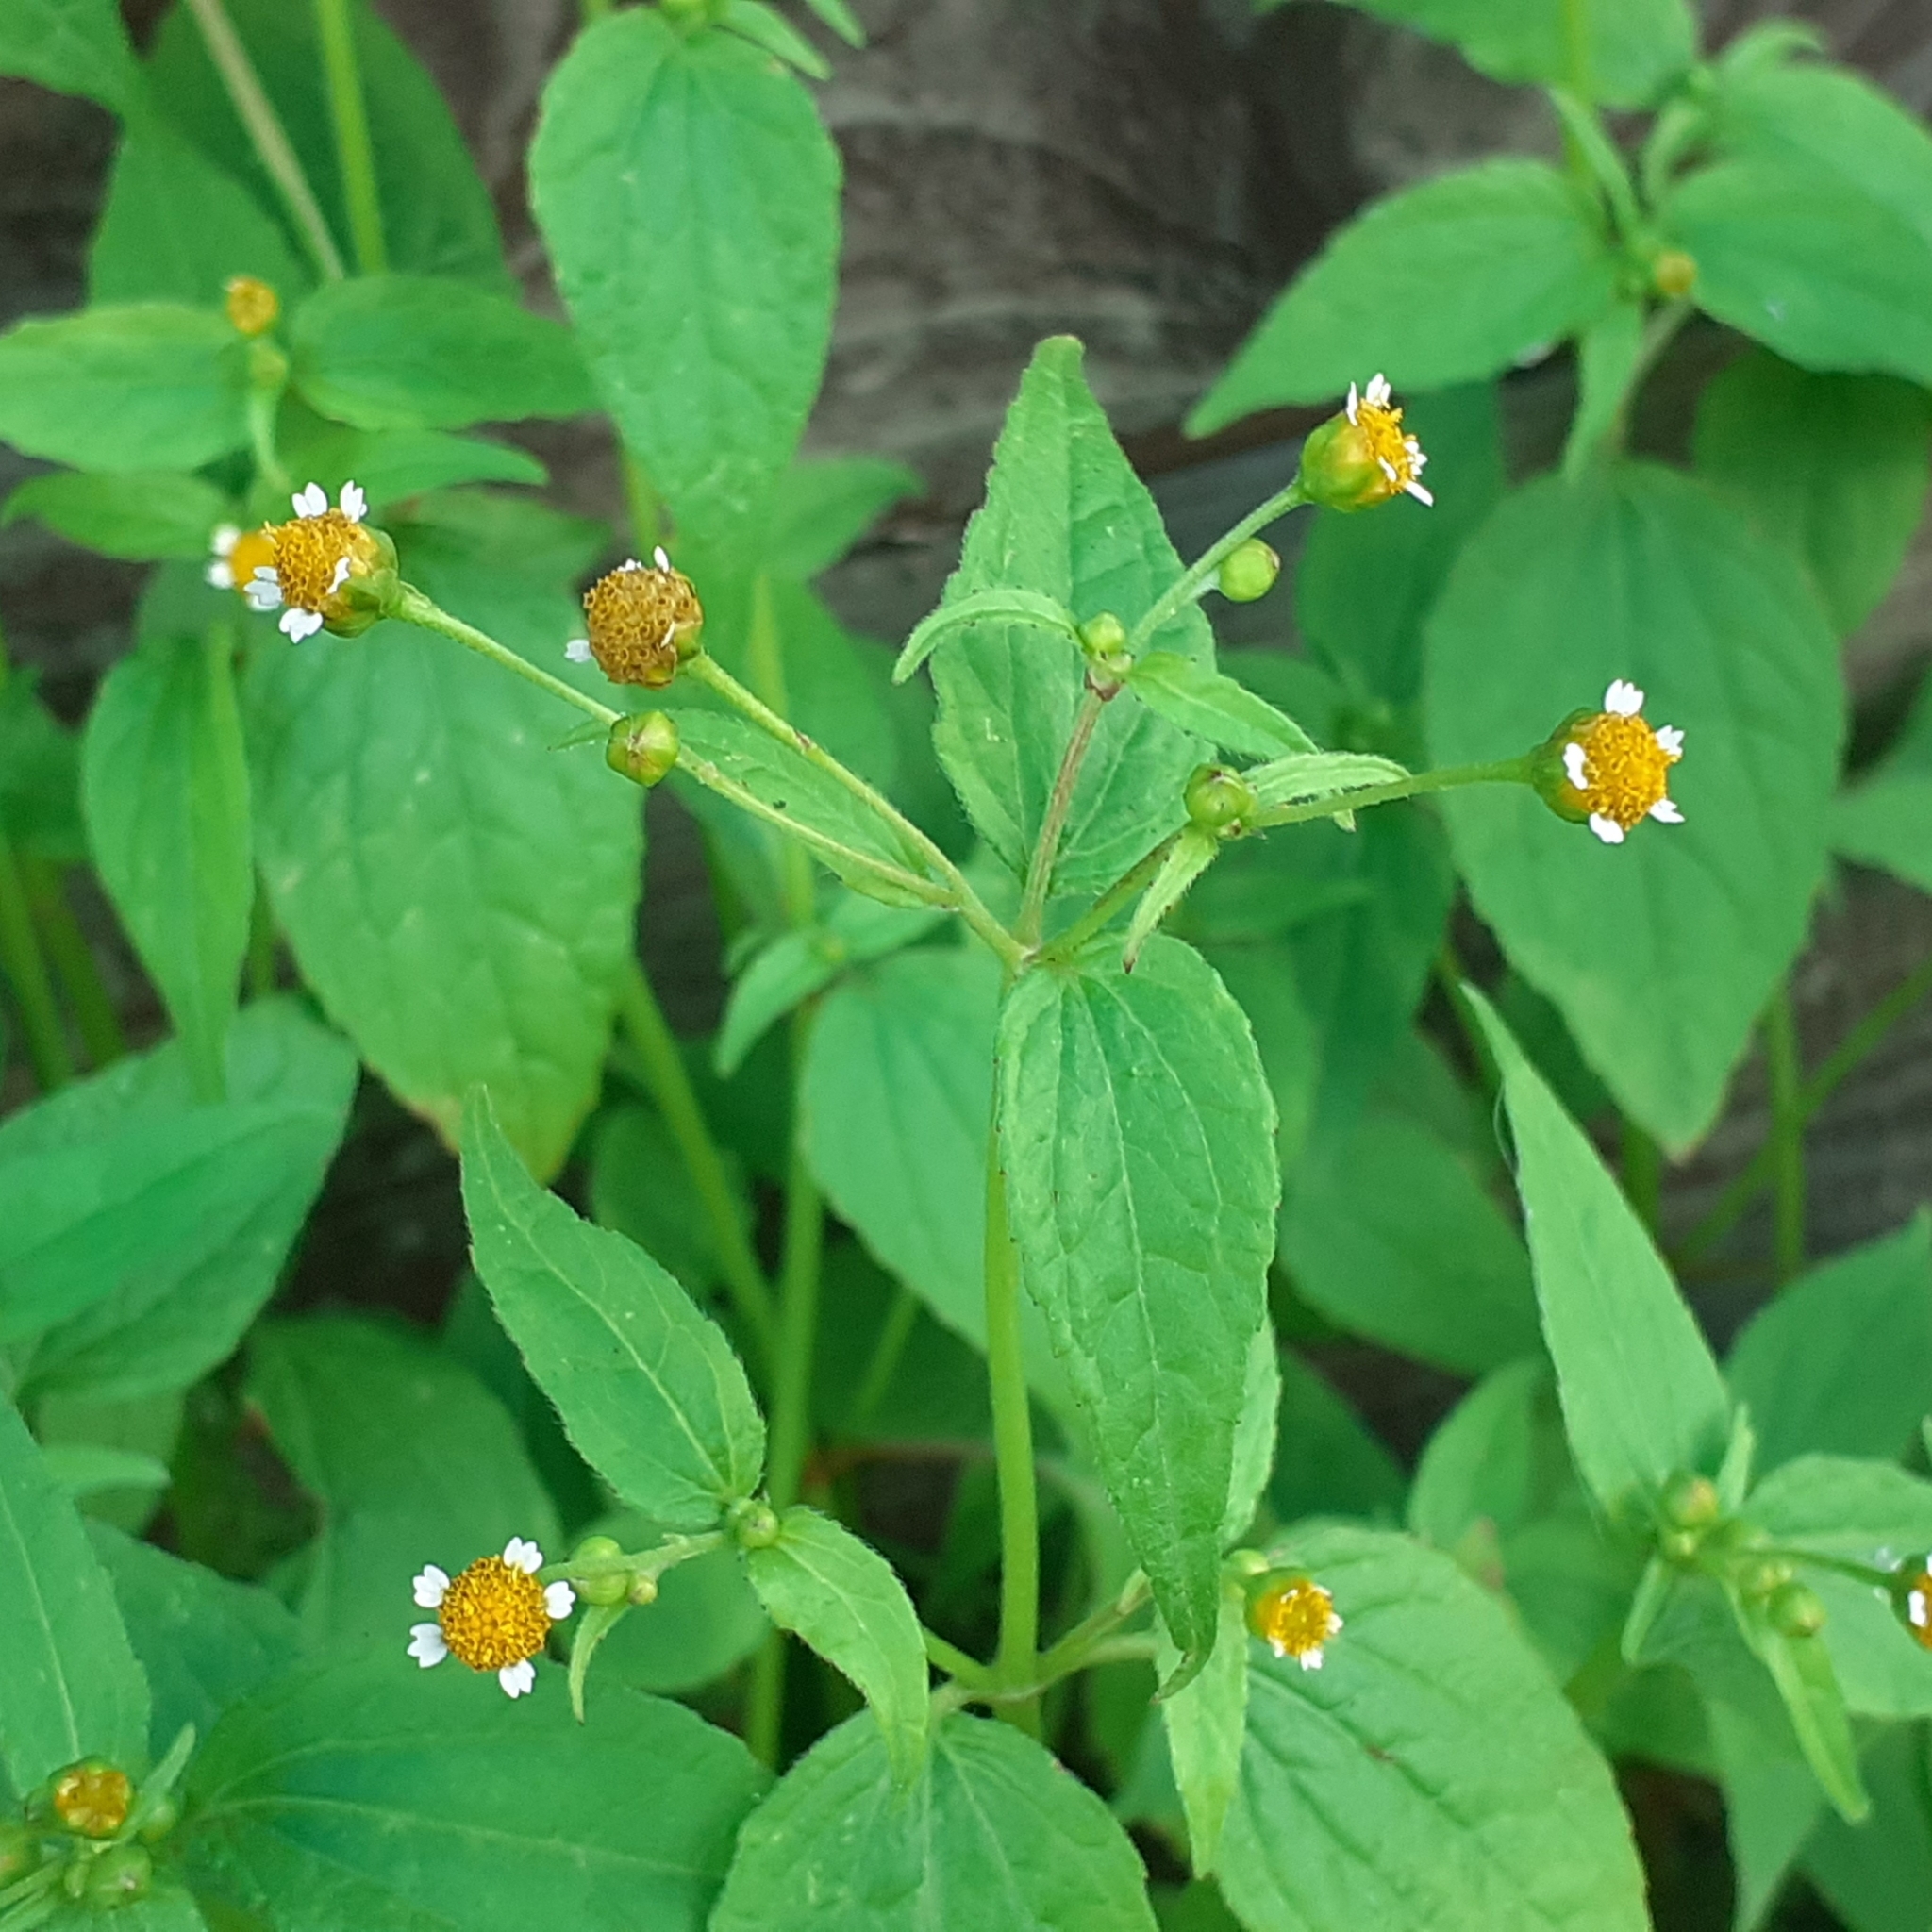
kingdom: Plantae
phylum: Tracheophyta
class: Magnoliopsida
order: Asterales
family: Asteraceae
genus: Galinsoga
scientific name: Galinsoga parviflora
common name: Gallant soldier
